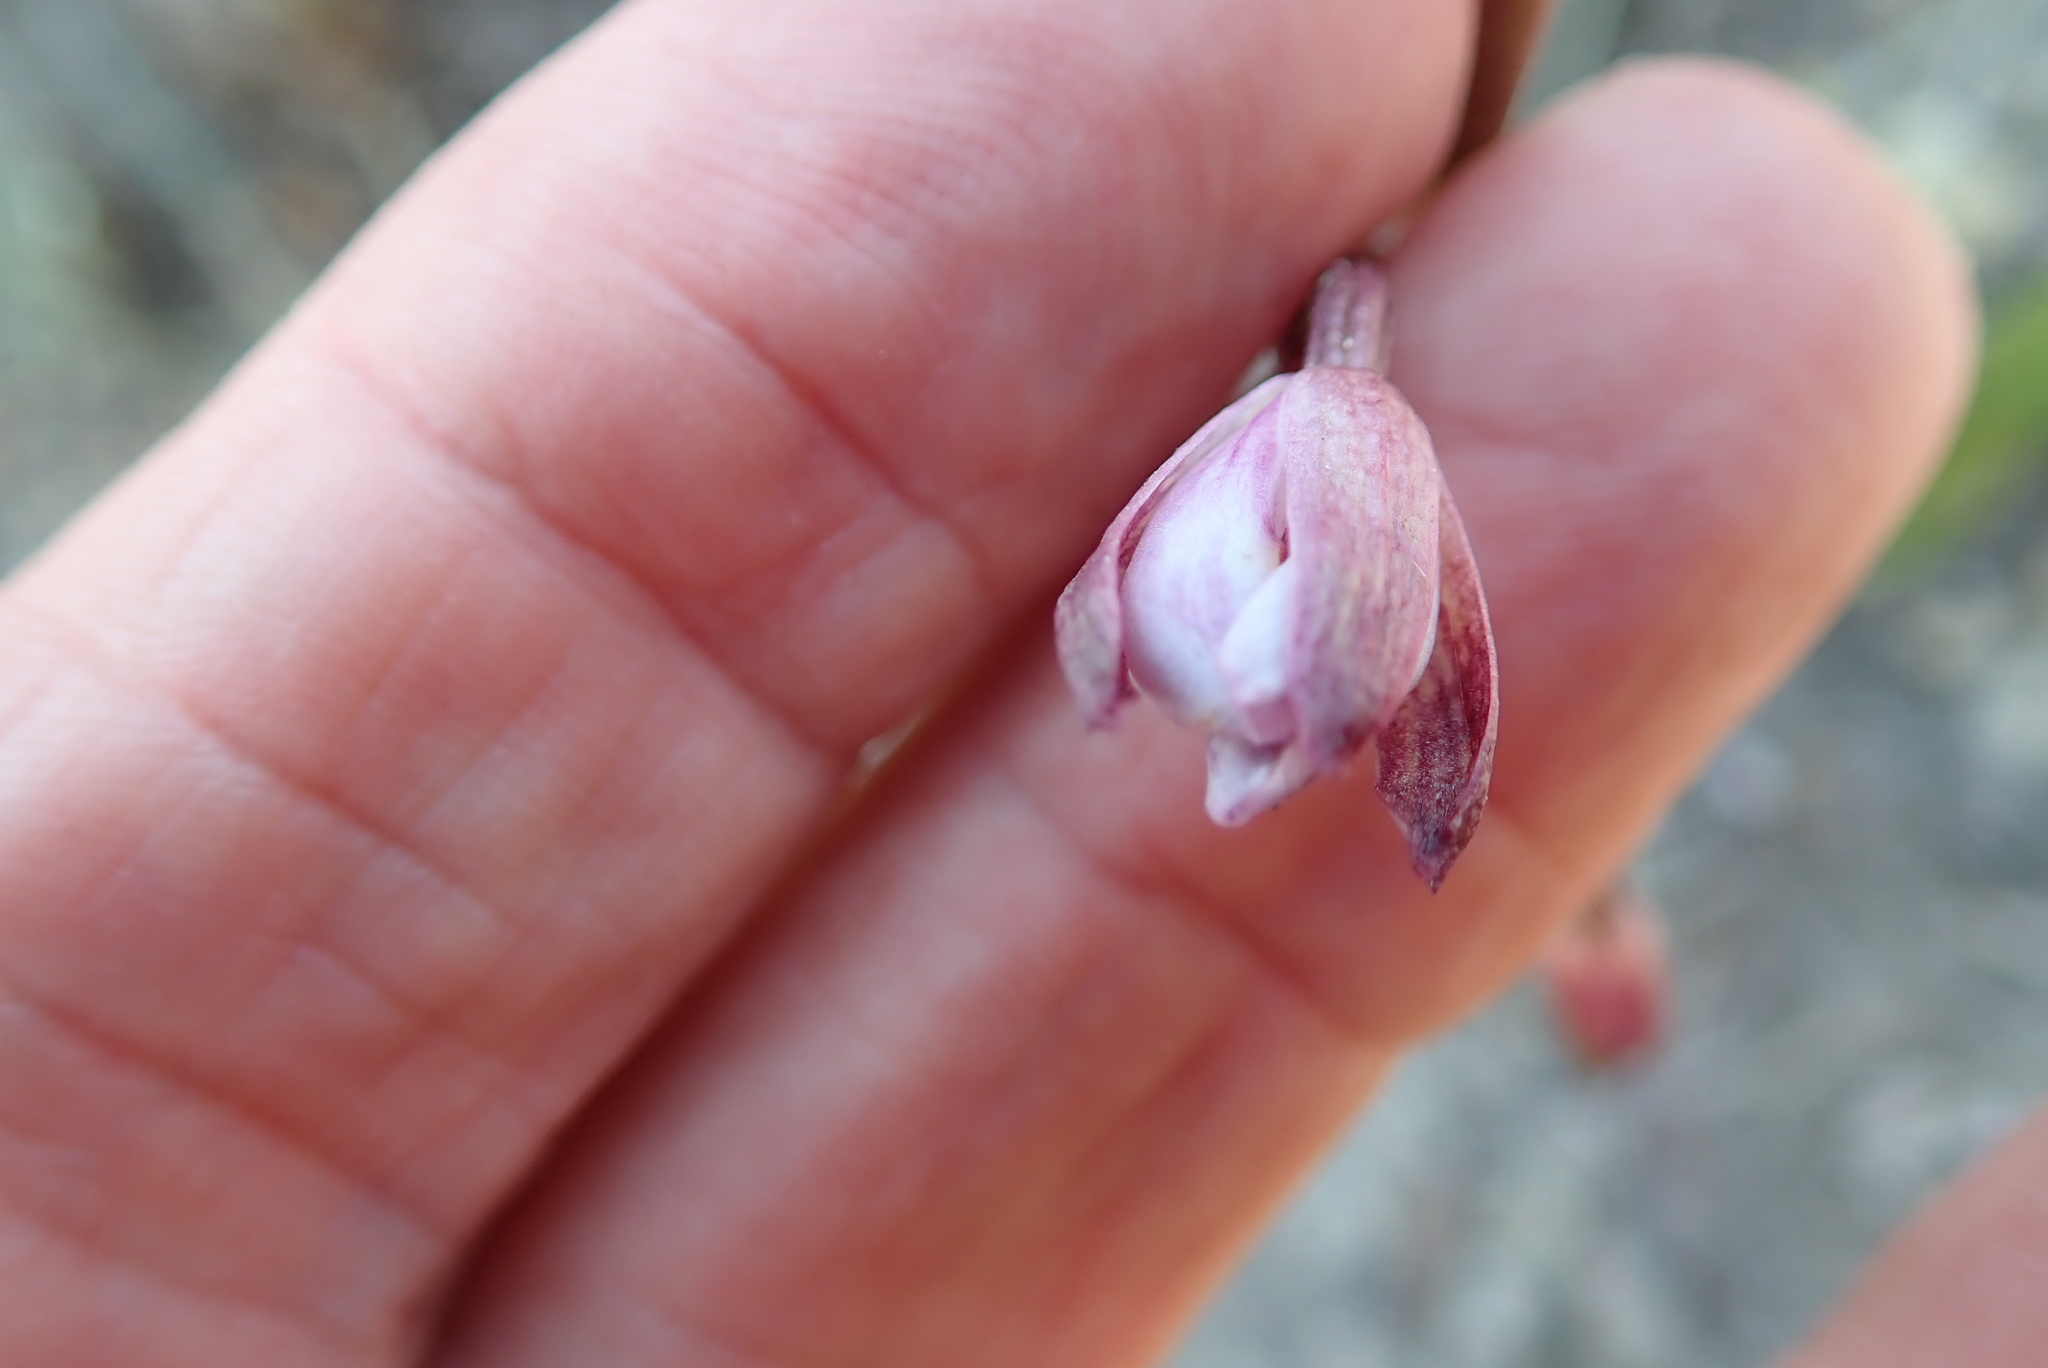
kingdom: Plantae
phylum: Tracheophyta
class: Liliopsida
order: Asparagales
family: Orchidaceae
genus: Eulophia
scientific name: Eulophia hians
